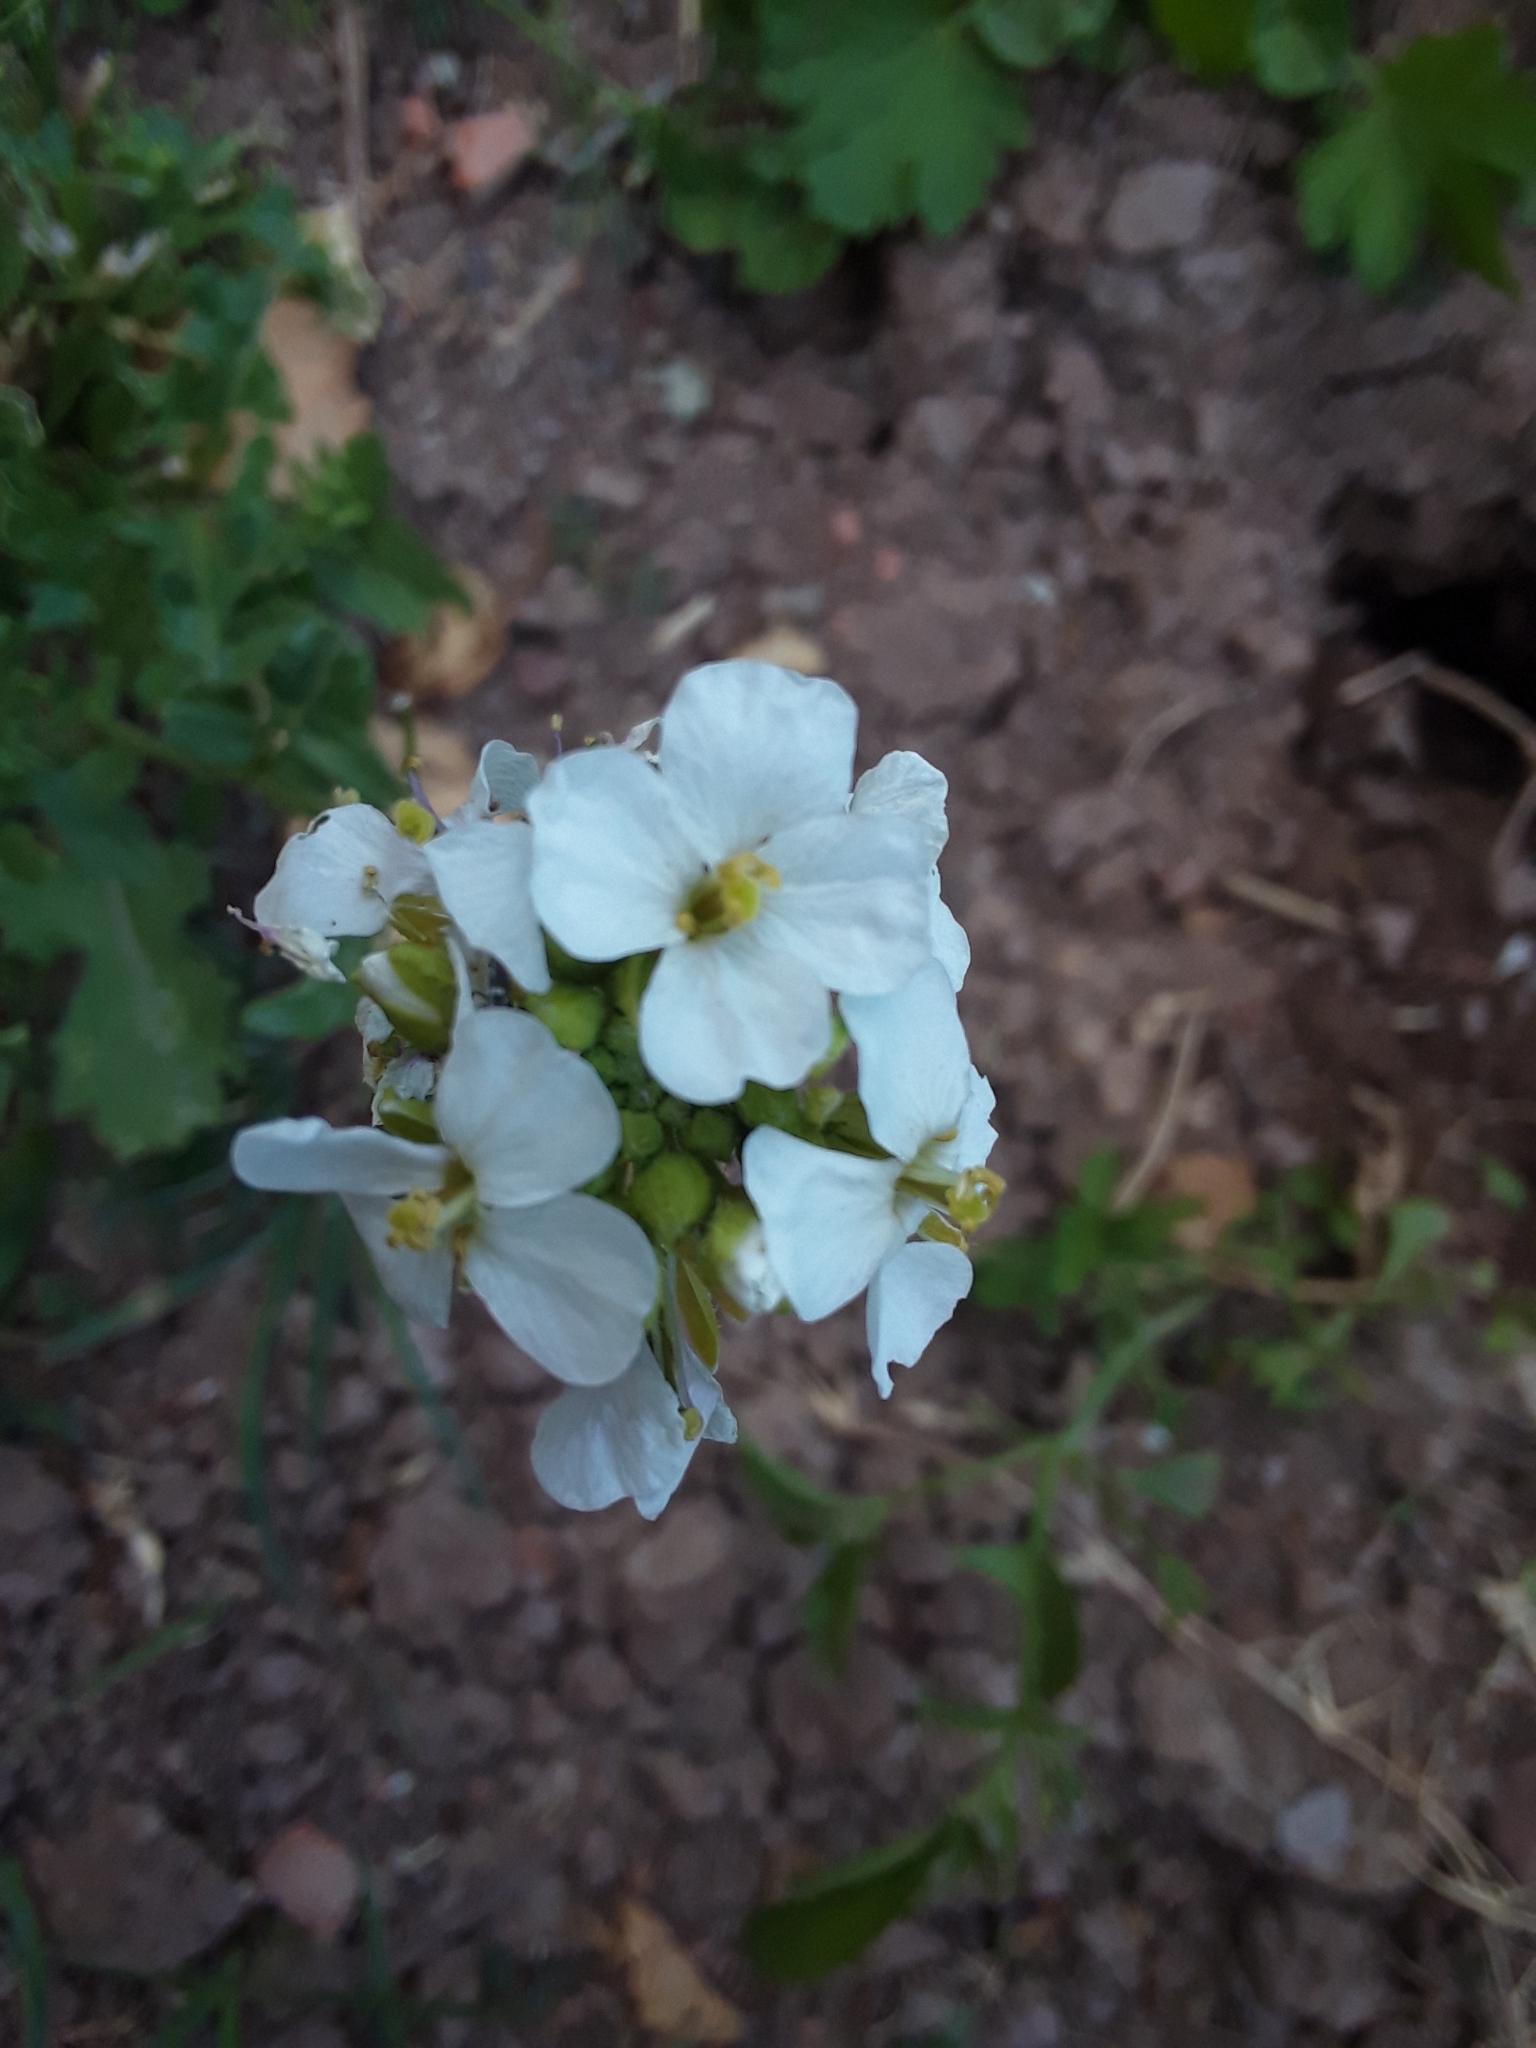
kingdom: Plantae
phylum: Tracheophyta
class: Magnoliopsida
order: Brassicales
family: Brassicaceae
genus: Diplotaxis
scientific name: Diplotaxis erucoides
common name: White rocket
